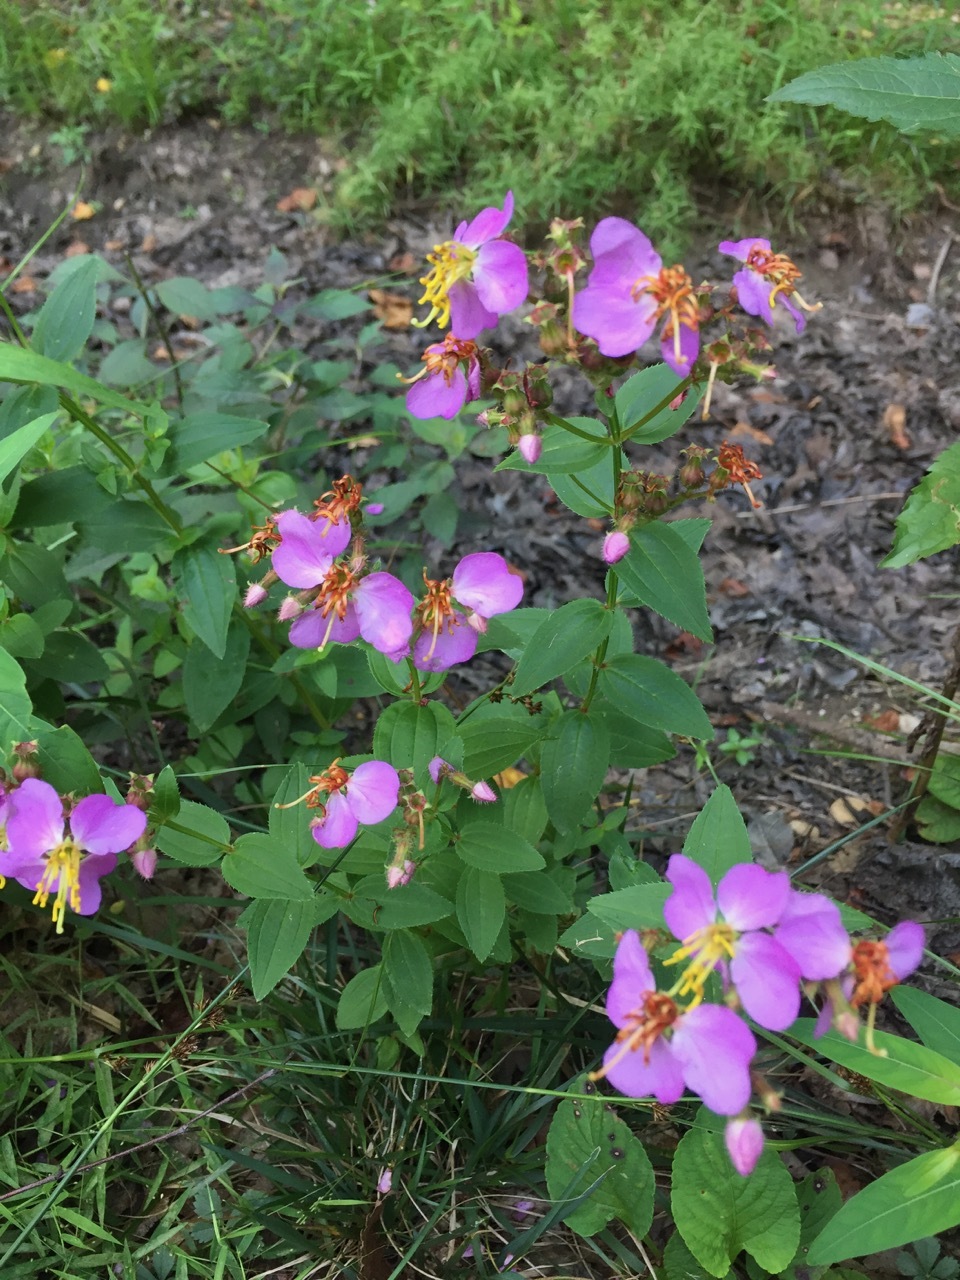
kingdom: Plantae
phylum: Tracheophyta
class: Magnoliopsida
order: Myrtales
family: Melastomataceae
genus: Rhexia
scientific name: Rhexia virginica
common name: Common meadow beauty
